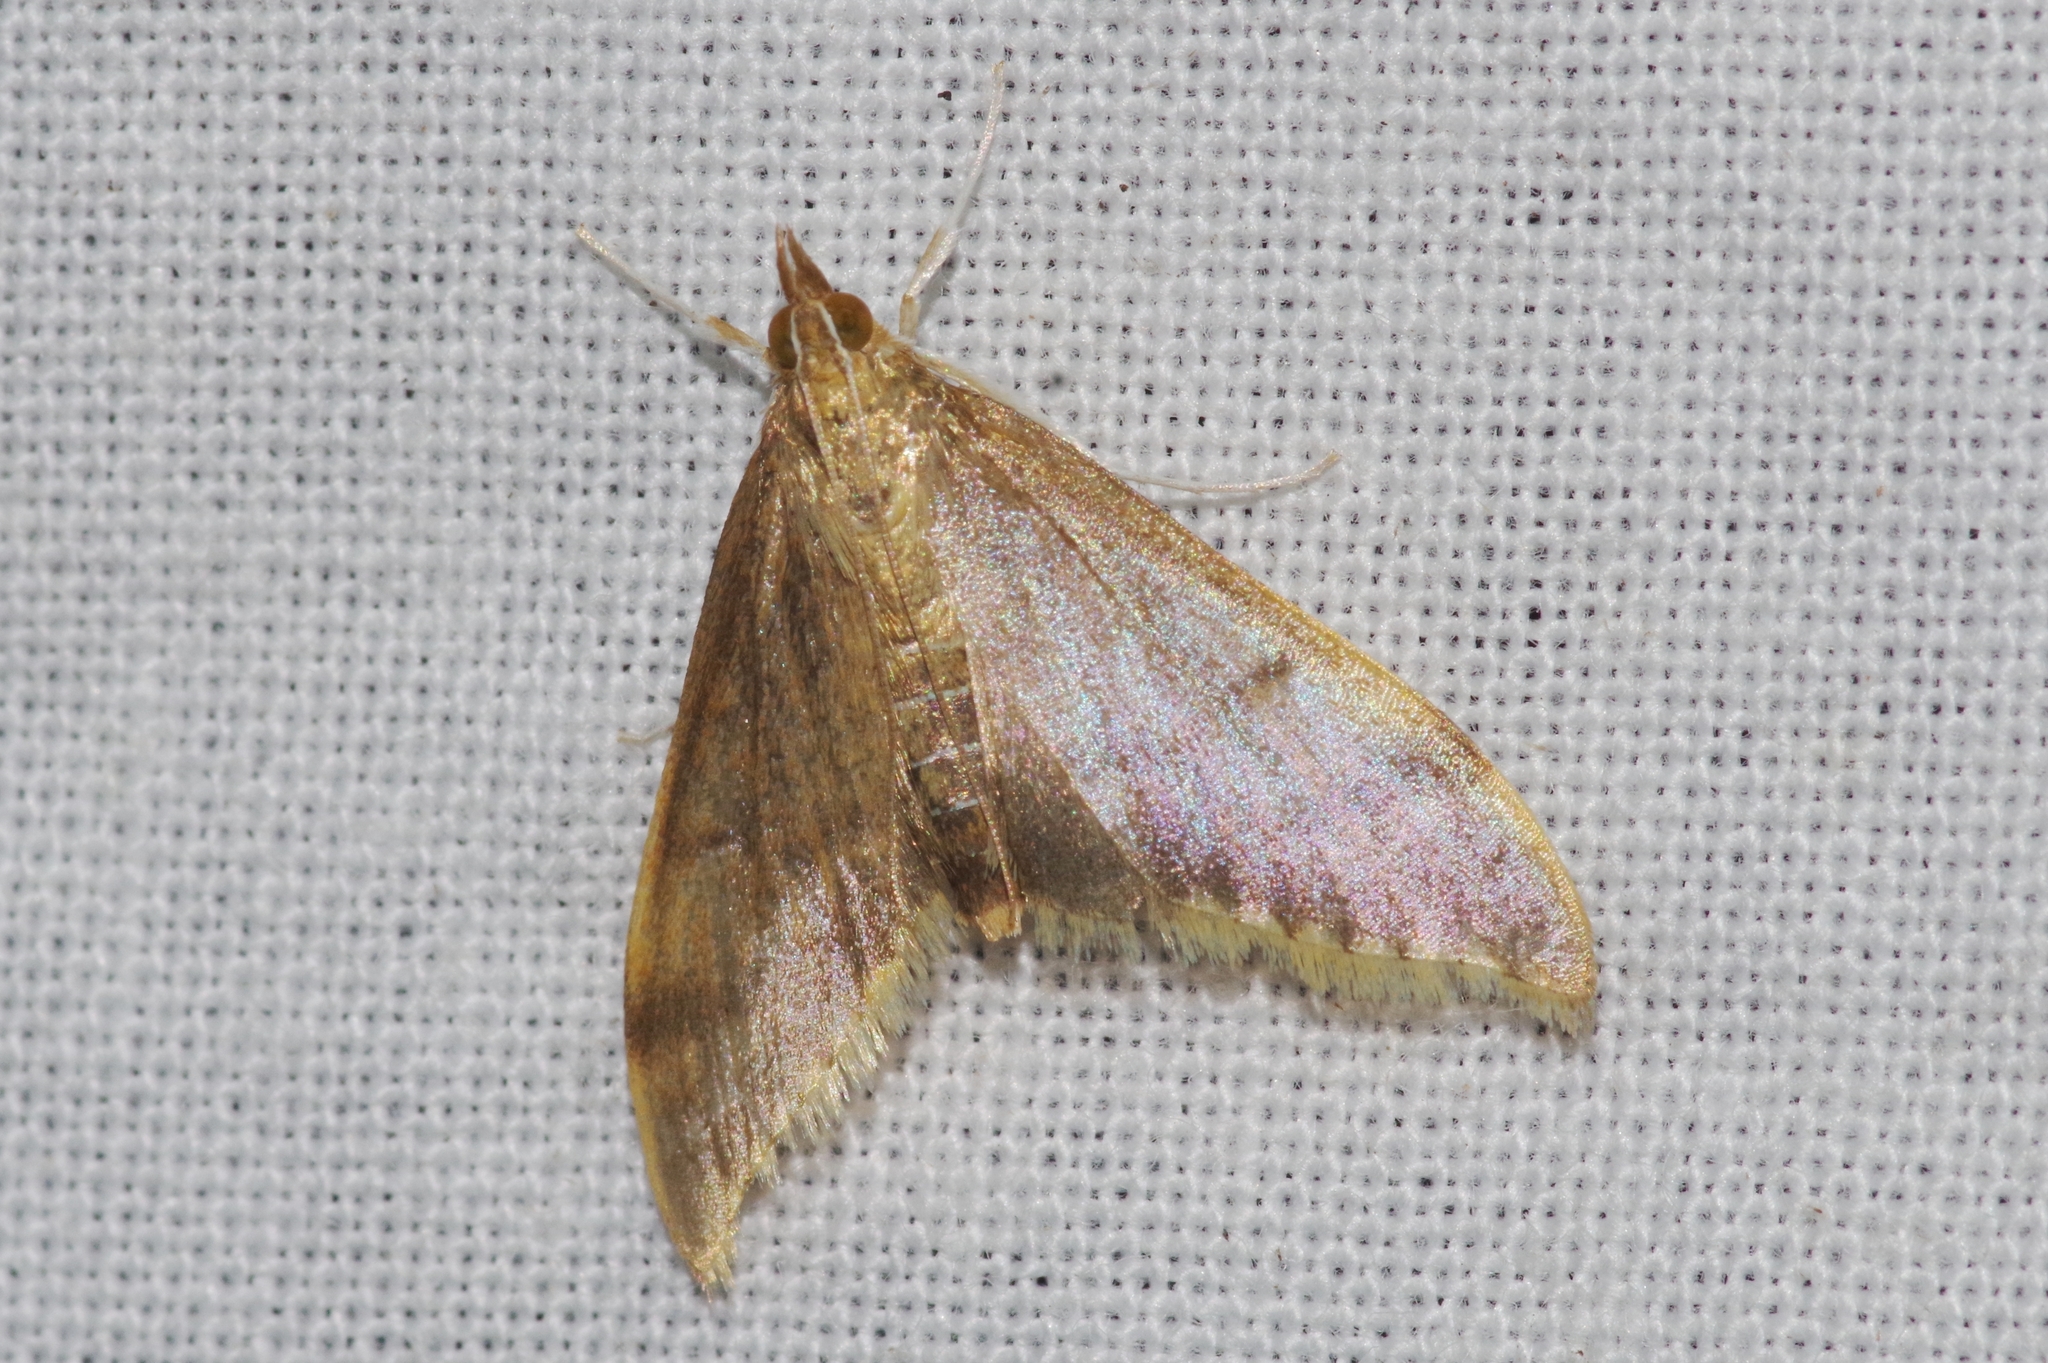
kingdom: Animalia
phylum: Arthropoda
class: Insecta
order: Lepidoptera
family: Crambidae
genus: Circobotys
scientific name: Circobotys nycterina
